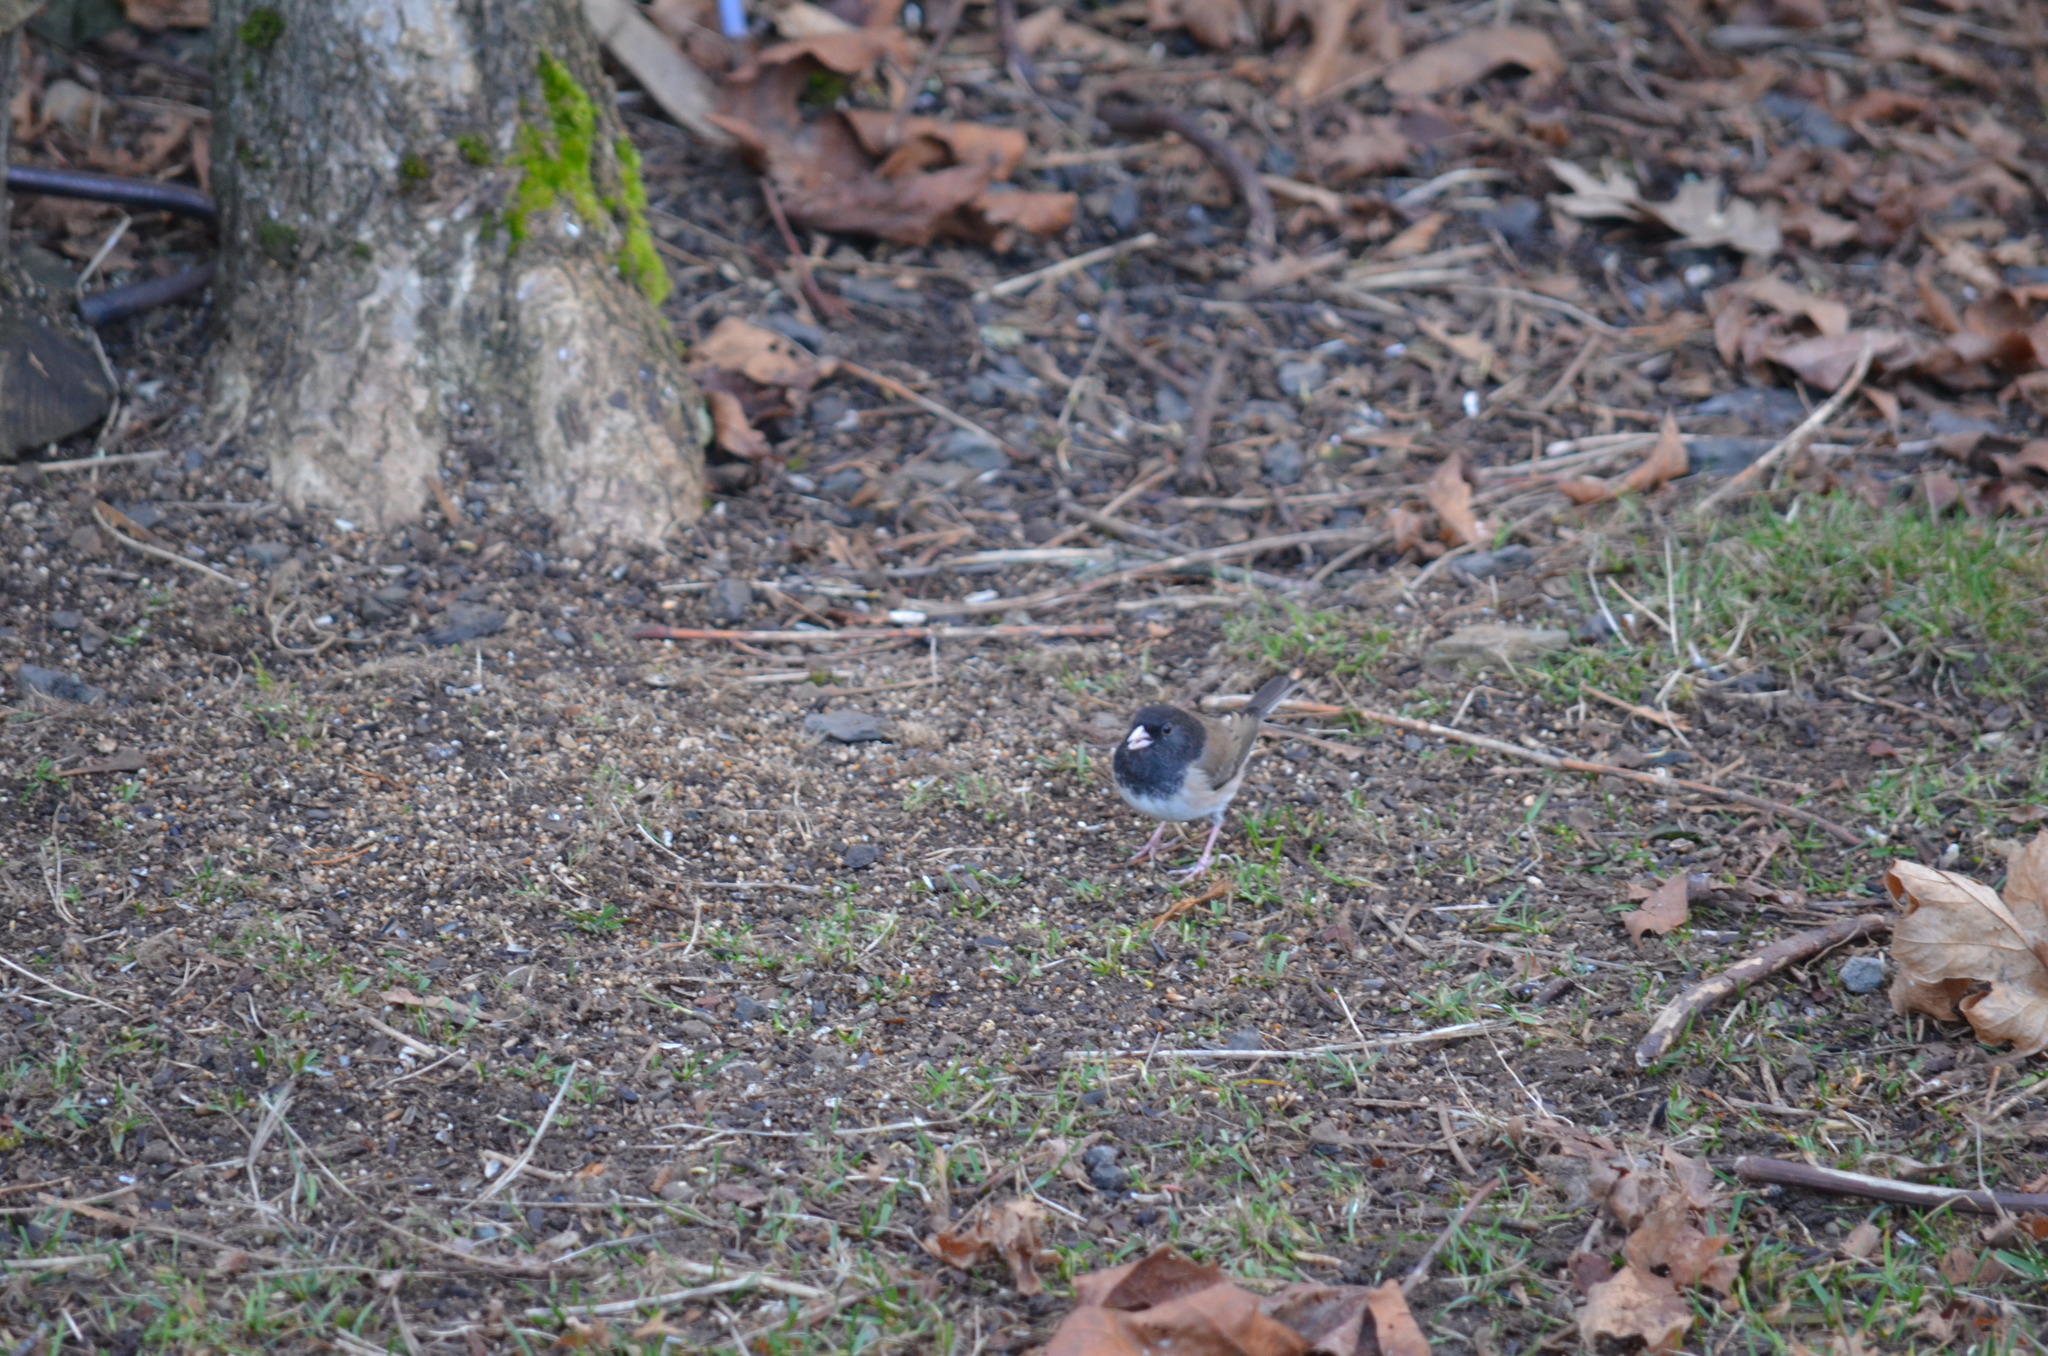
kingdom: Animalia
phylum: Chordata
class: Aves
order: Passeriformes
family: Passerellidae
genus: Junco
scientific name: Junco hyemalis
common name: Dark-eyed junco
